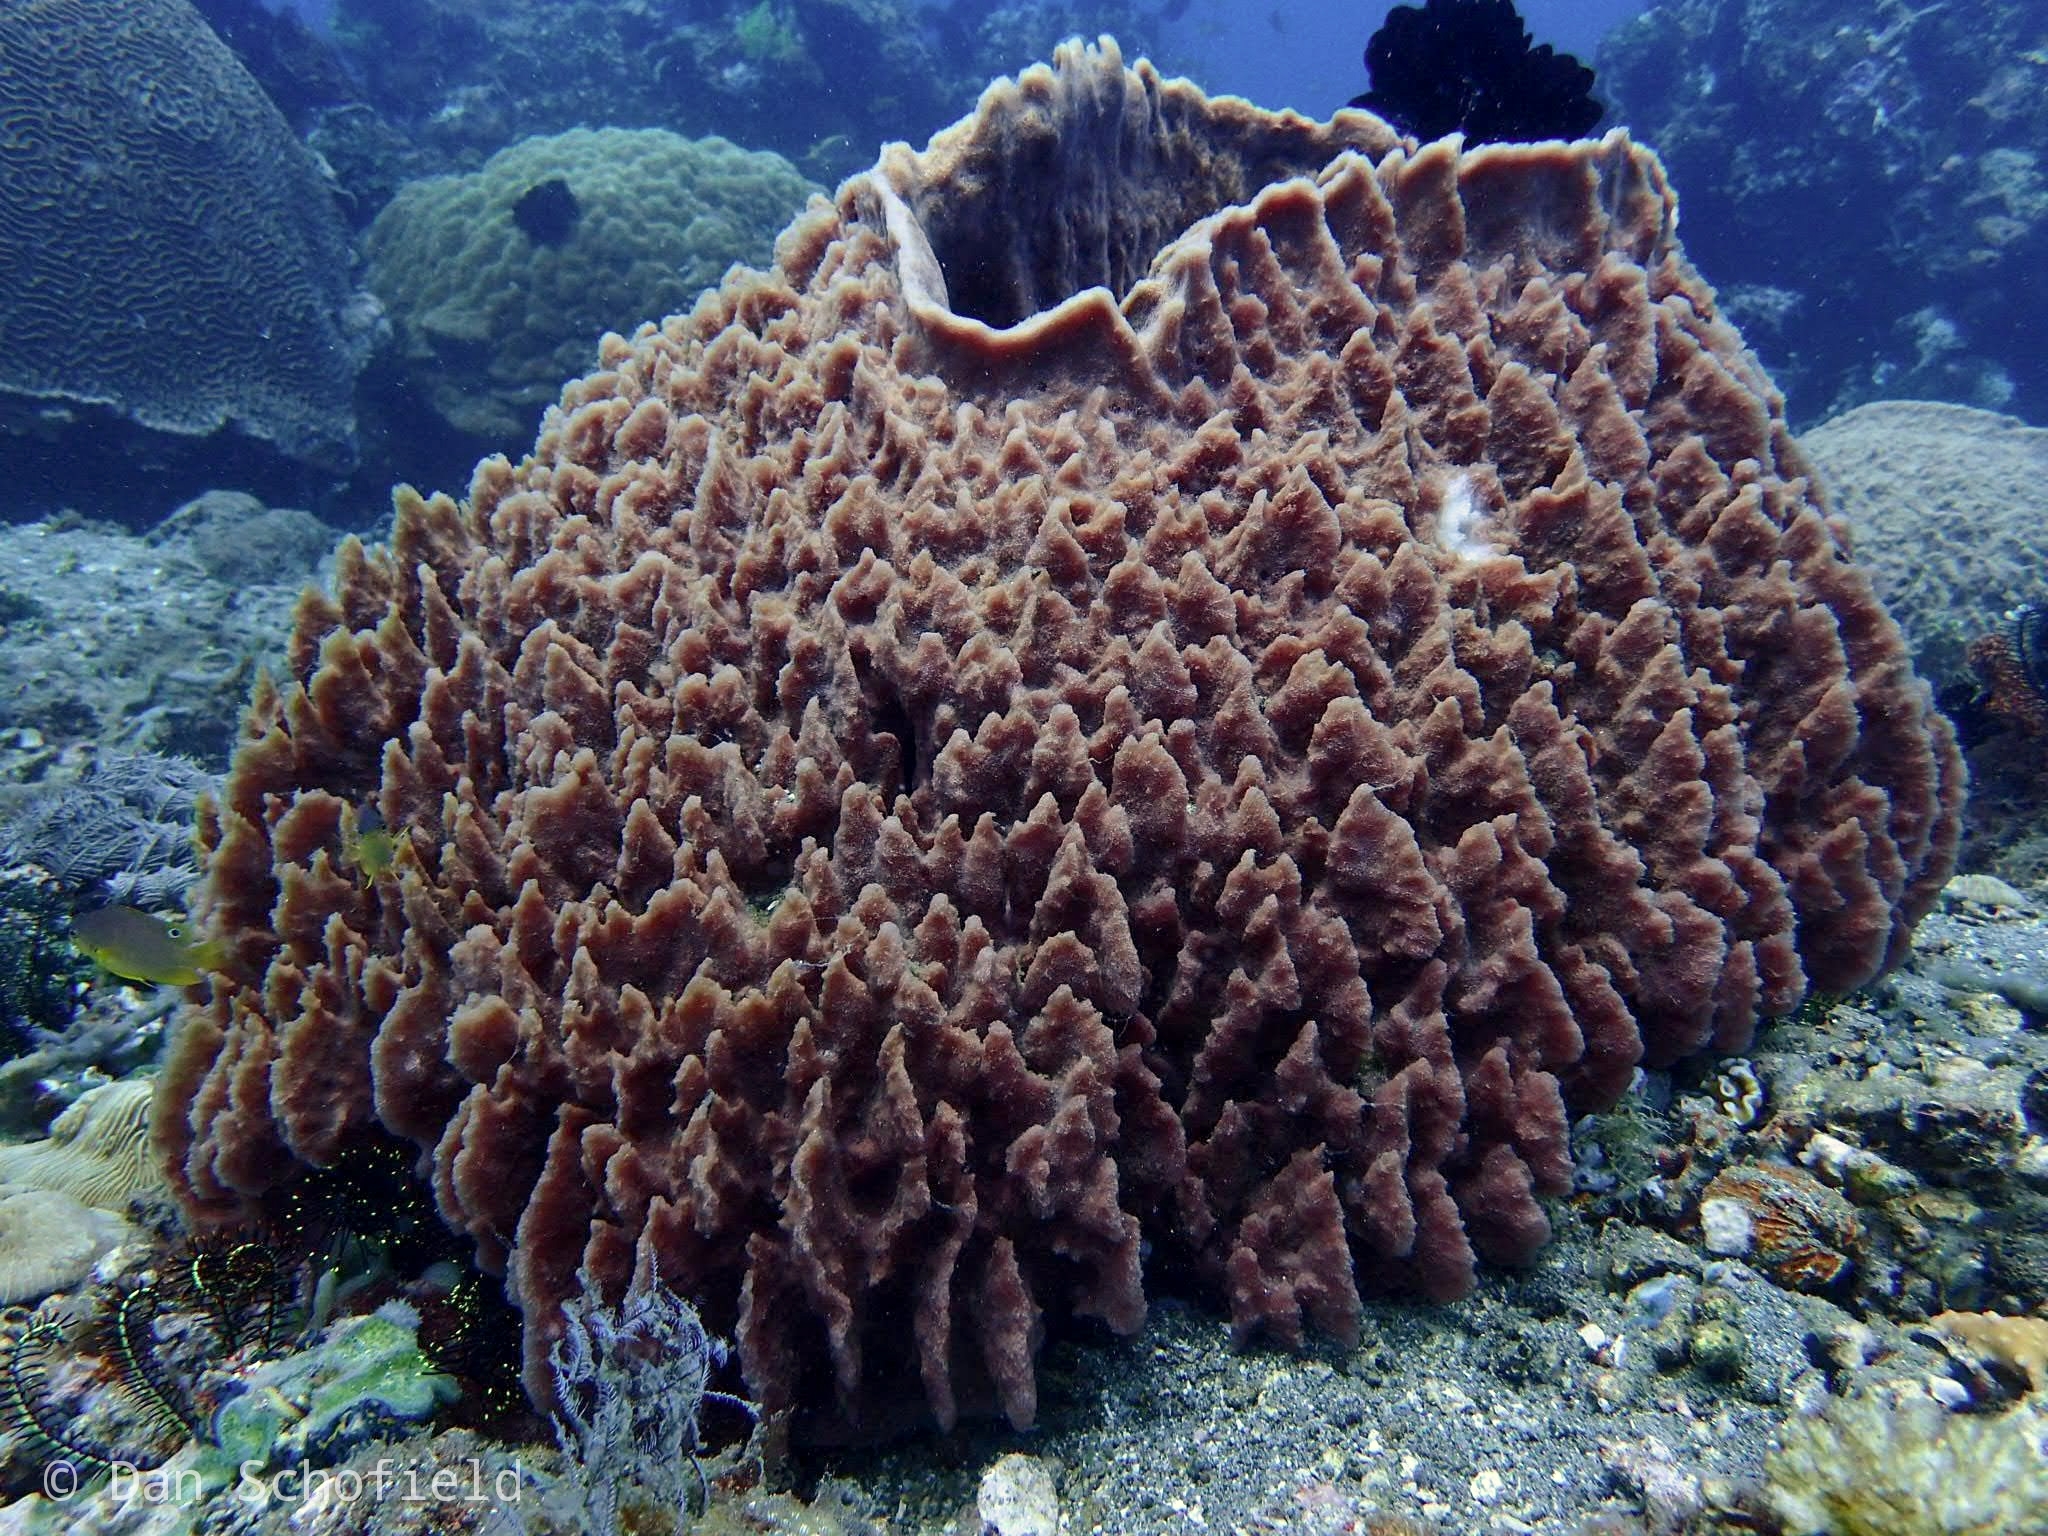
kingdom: Animalia
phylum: Porifera
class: Demospongiae
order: Haplosclerida
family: Petrosiidae
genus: Xestospongia
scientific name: Xestospongia testudinaria
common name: Barrel sponge
